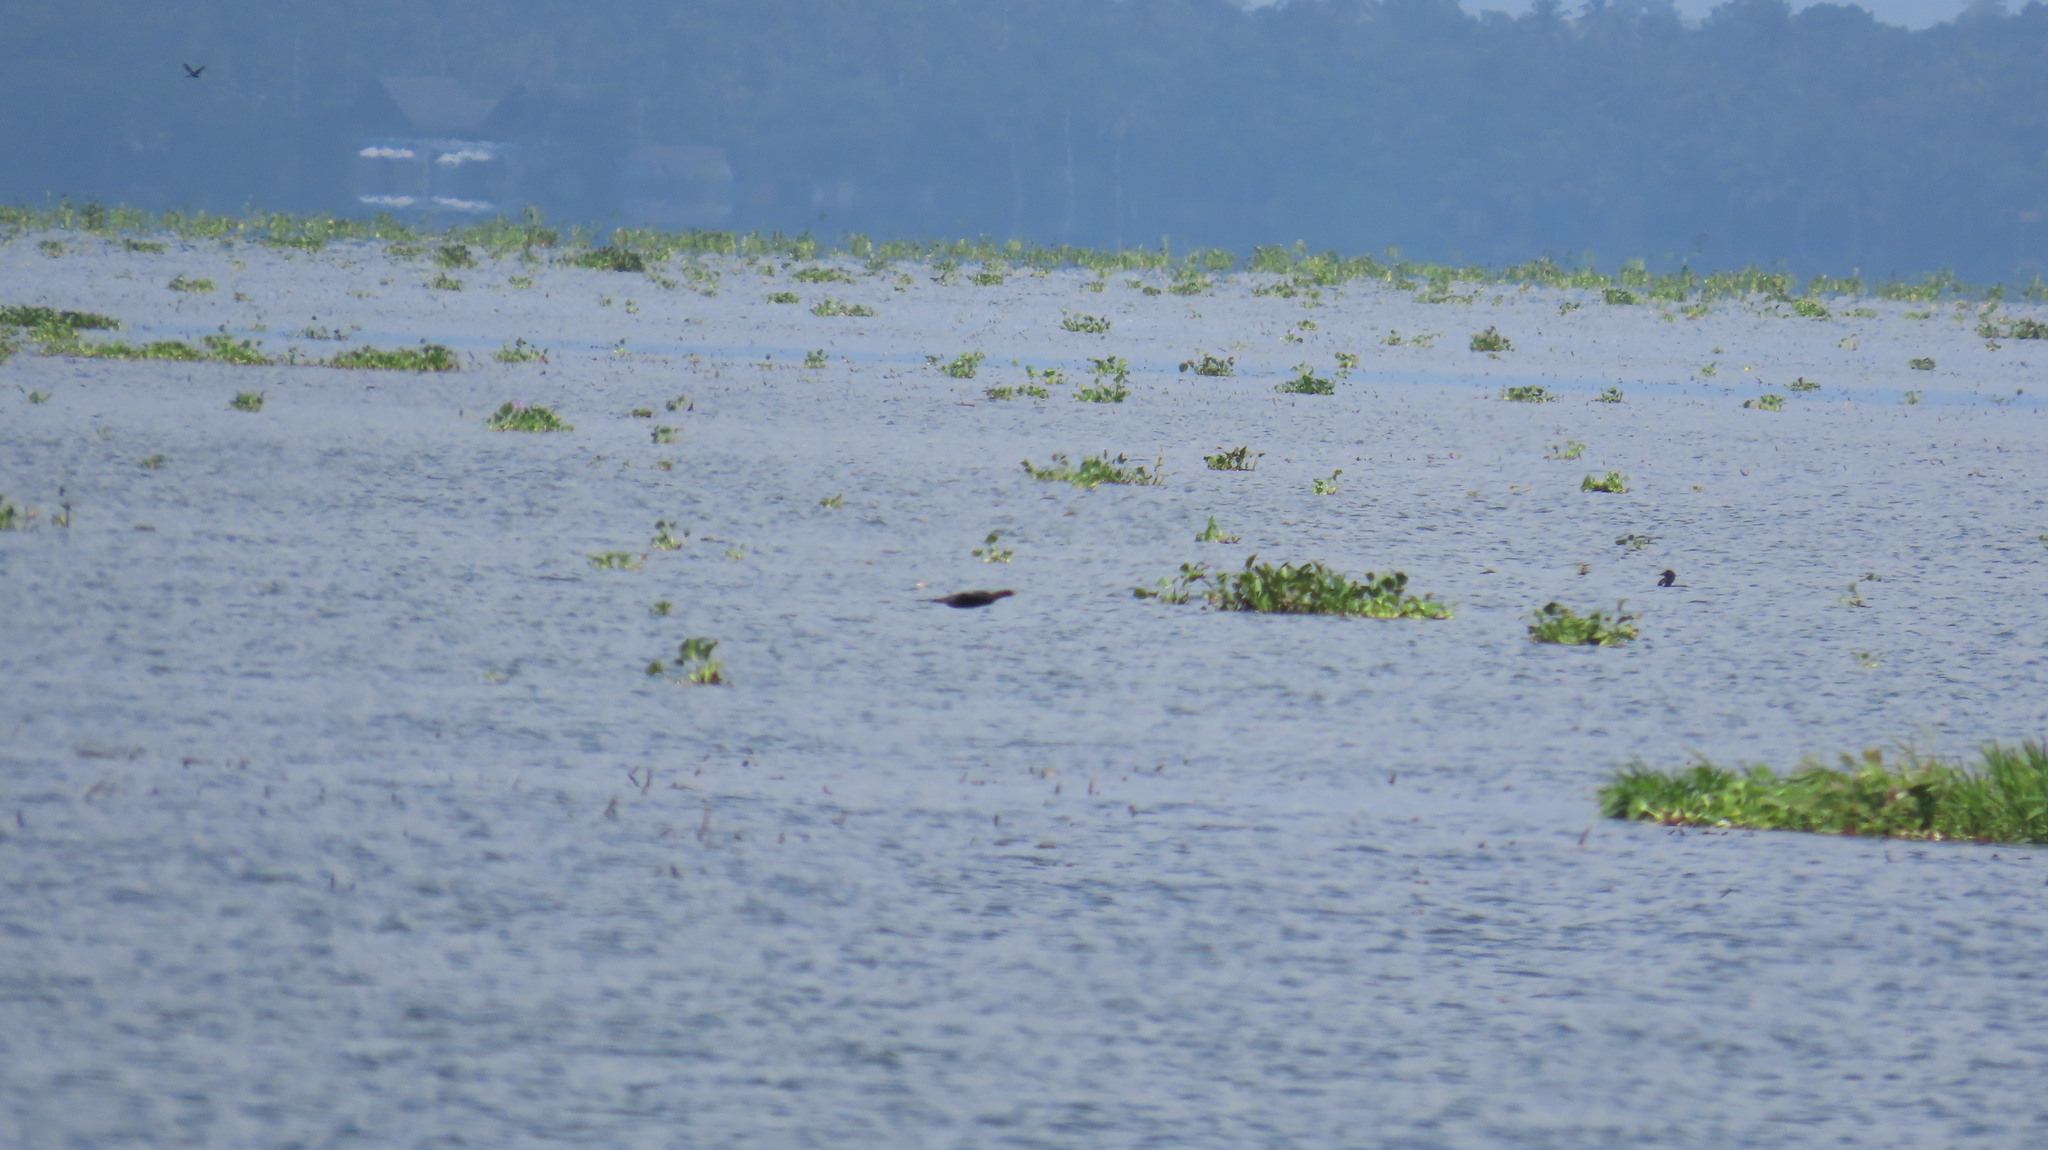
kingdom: Animalia
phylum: Chordata
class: Aves
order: Suliformes
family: Phalacrocoracidae
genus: Microcarbo
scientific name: Microcarbo niger
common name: Little cormorant
